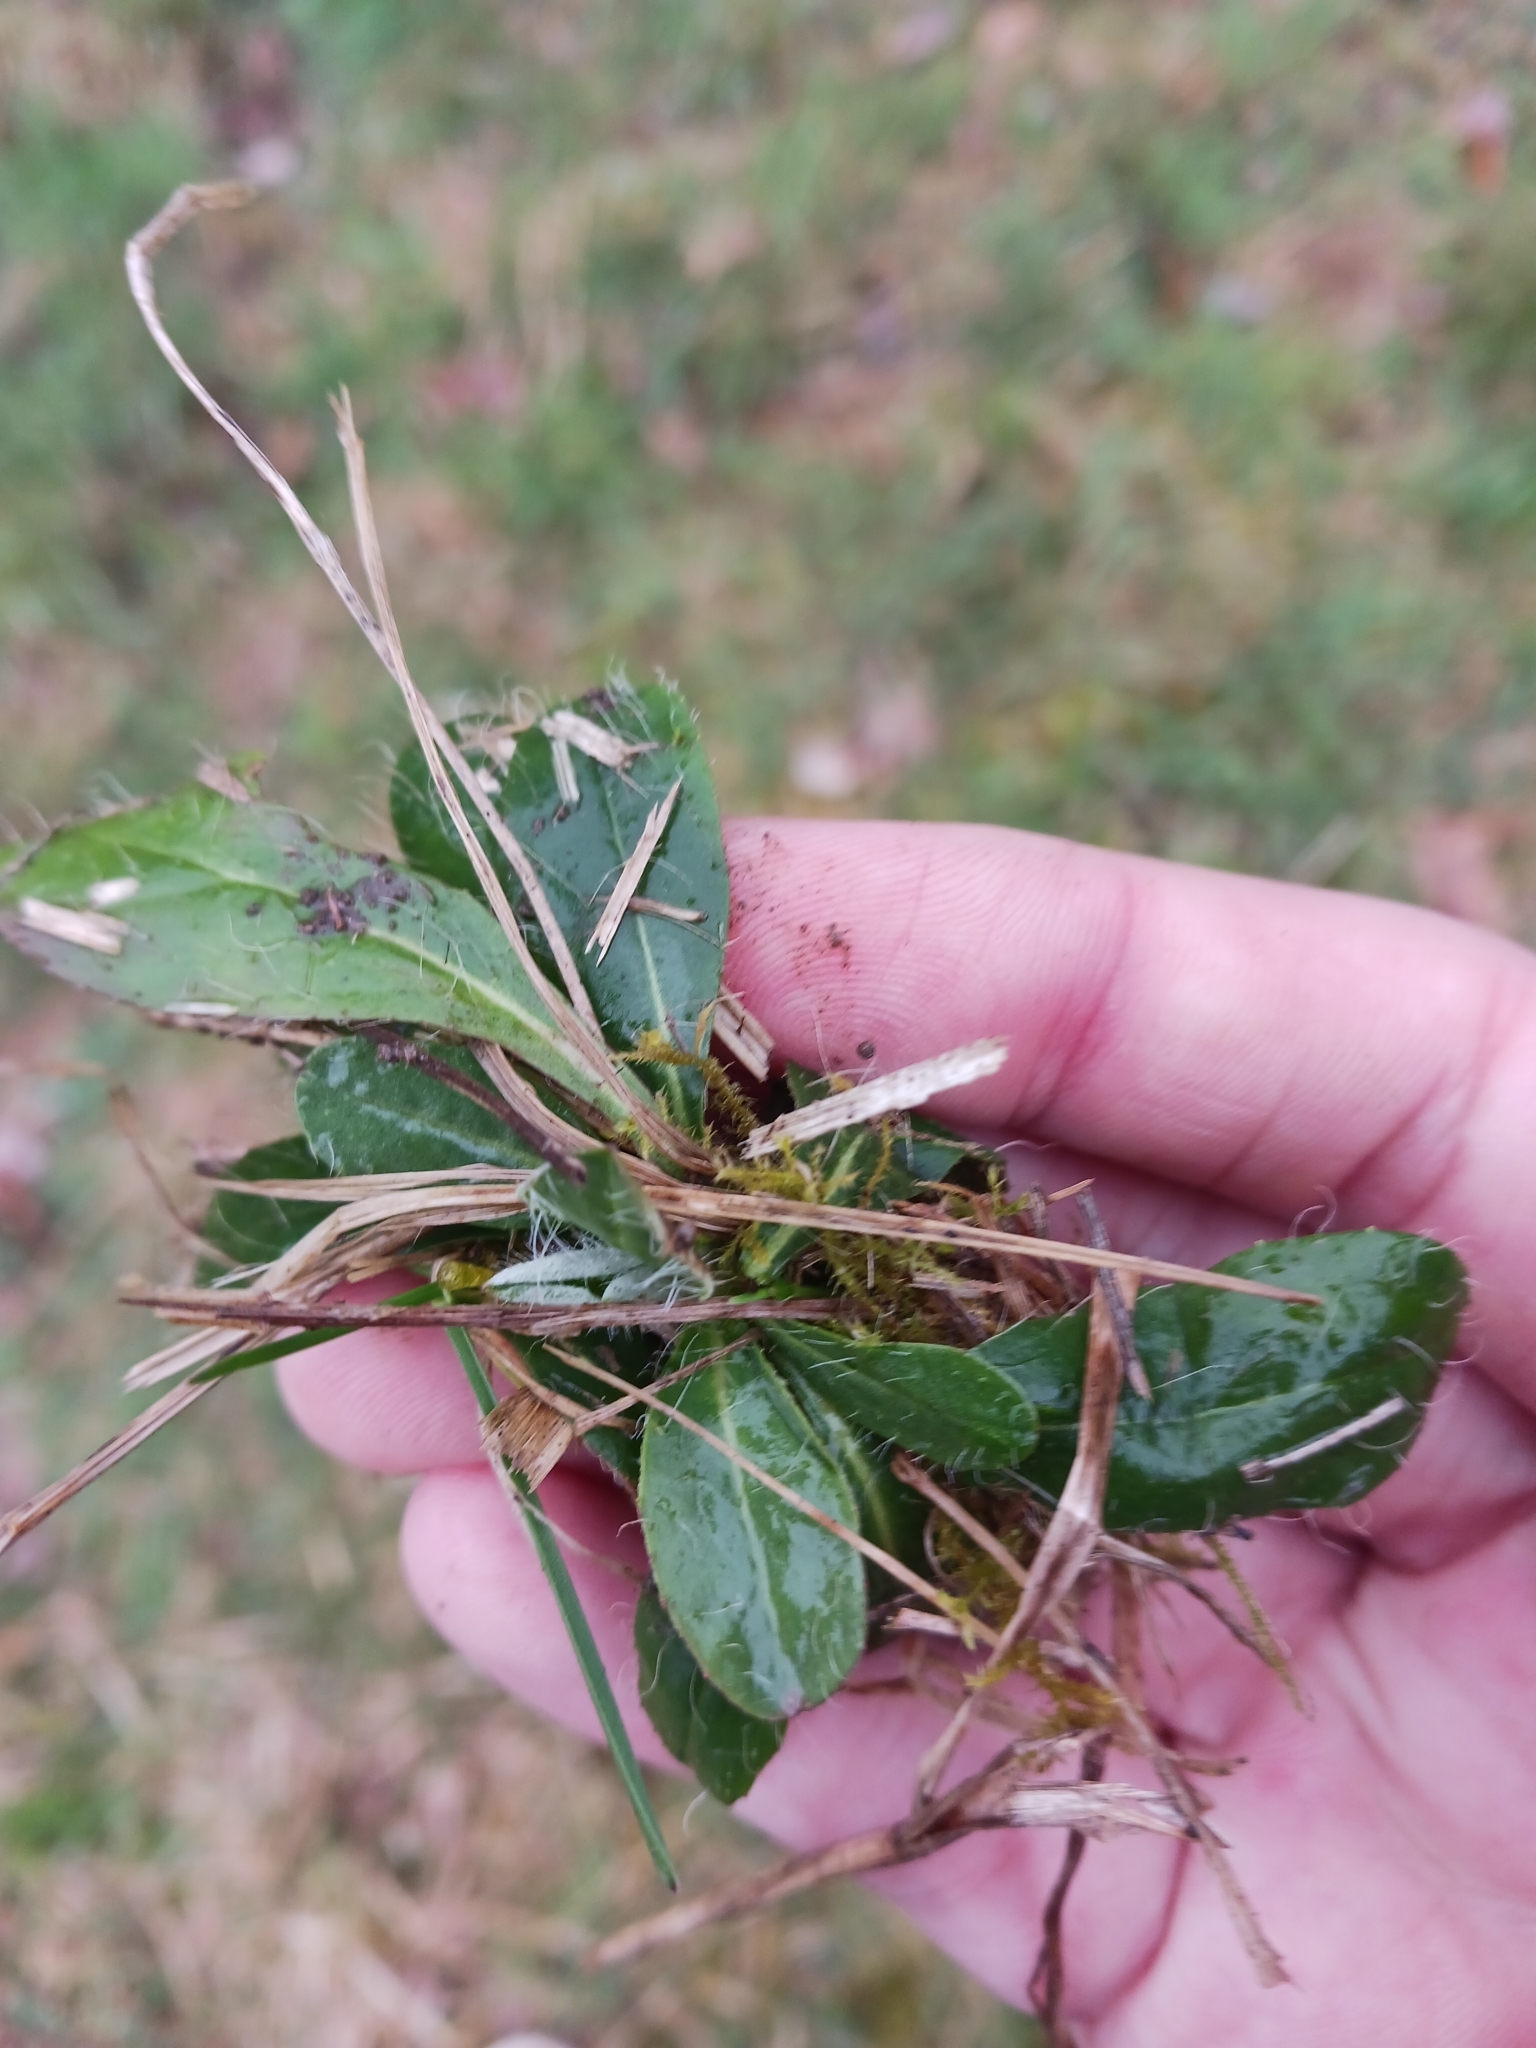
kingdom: Plantae
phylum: Tracheophyta
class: Magnoliopsida
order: Asterales
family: Asteraceae
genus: Pilosella
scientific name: Pilosella officinarum
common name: Mouse-ear hawkweed
